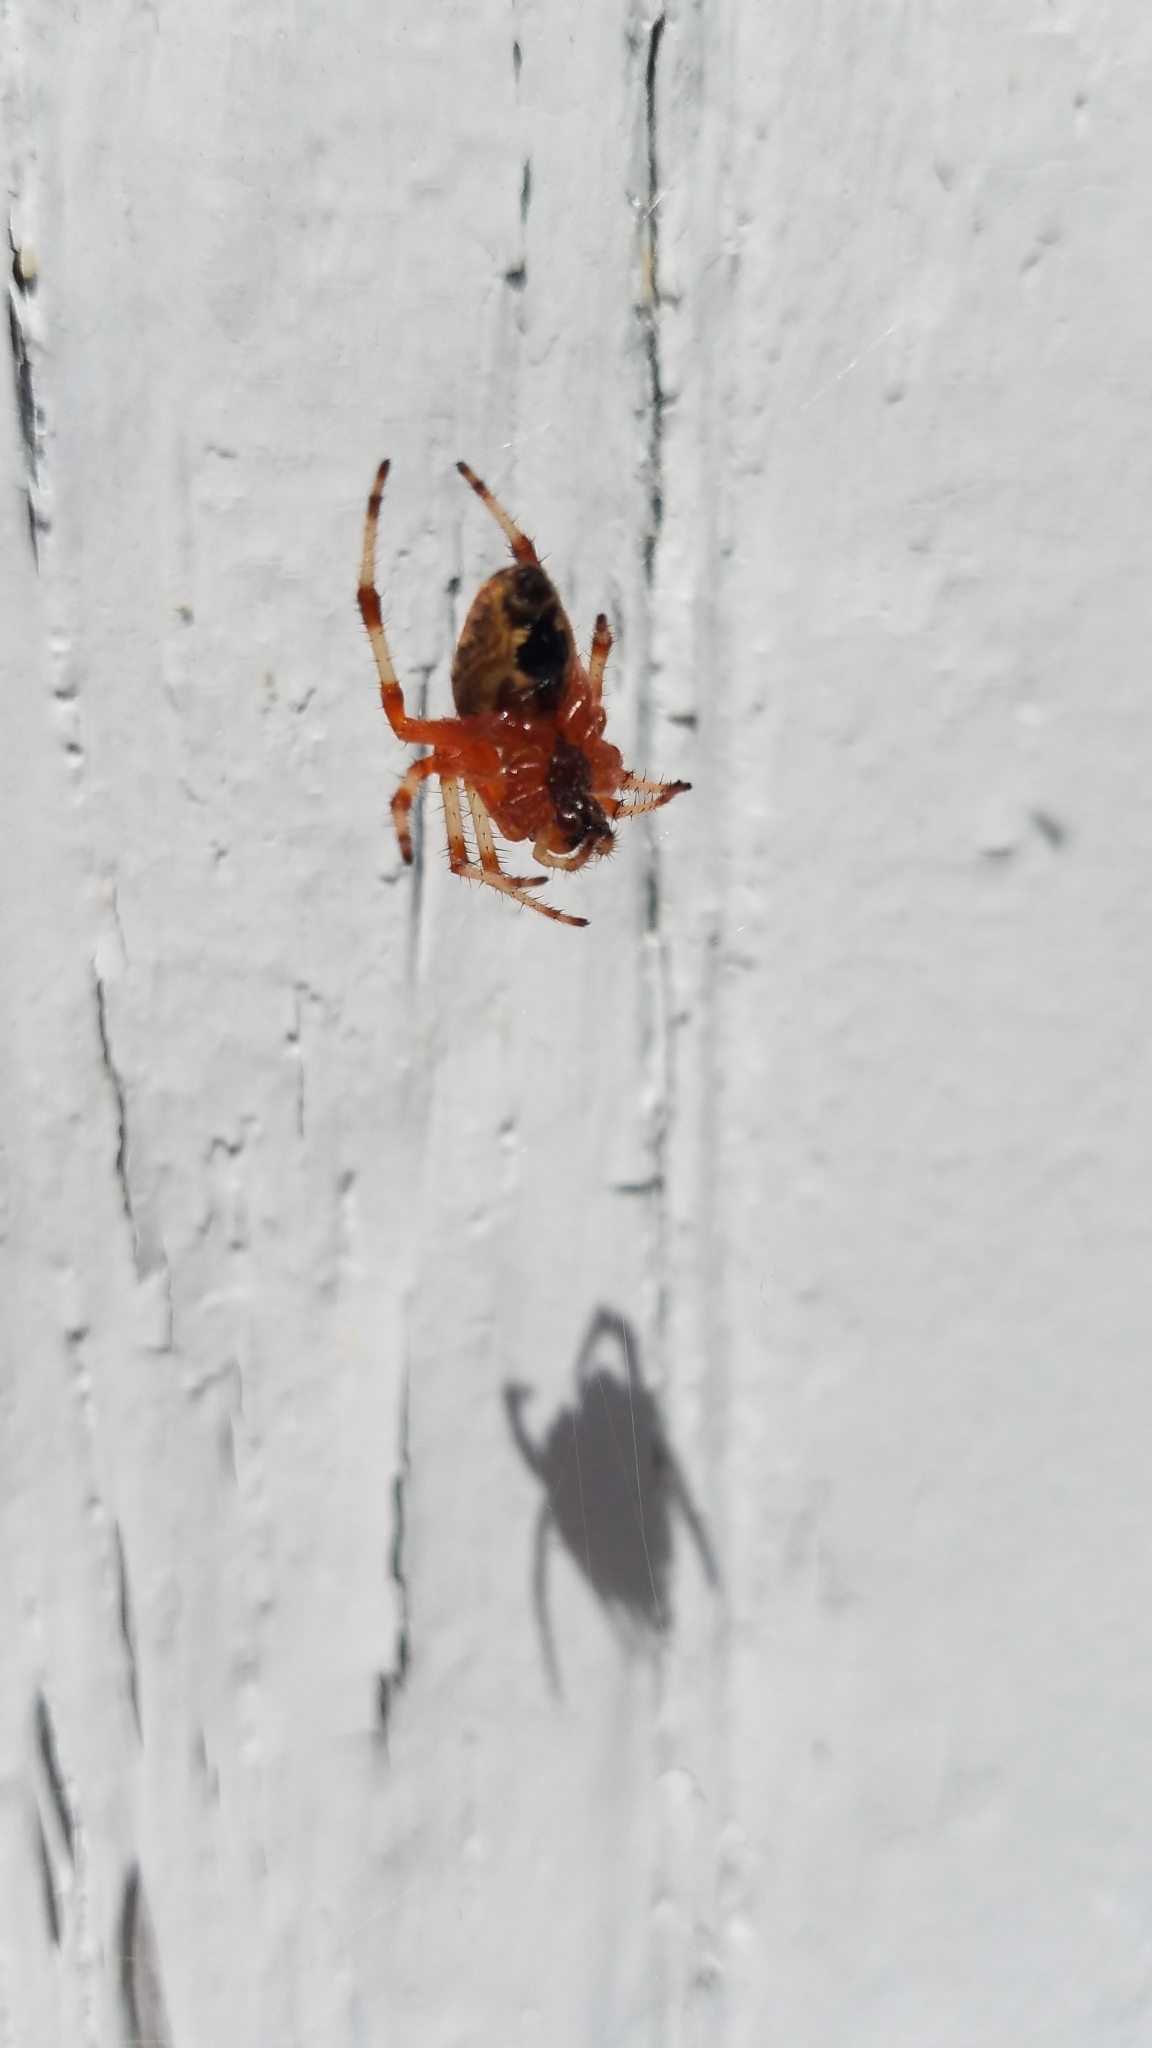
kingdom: Animalia
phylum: Arthropoda
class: Arachnida
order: Araneae
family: Araneidae
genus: Araneus
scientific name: Araneus marmoreus
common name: Marbled orbweaver
